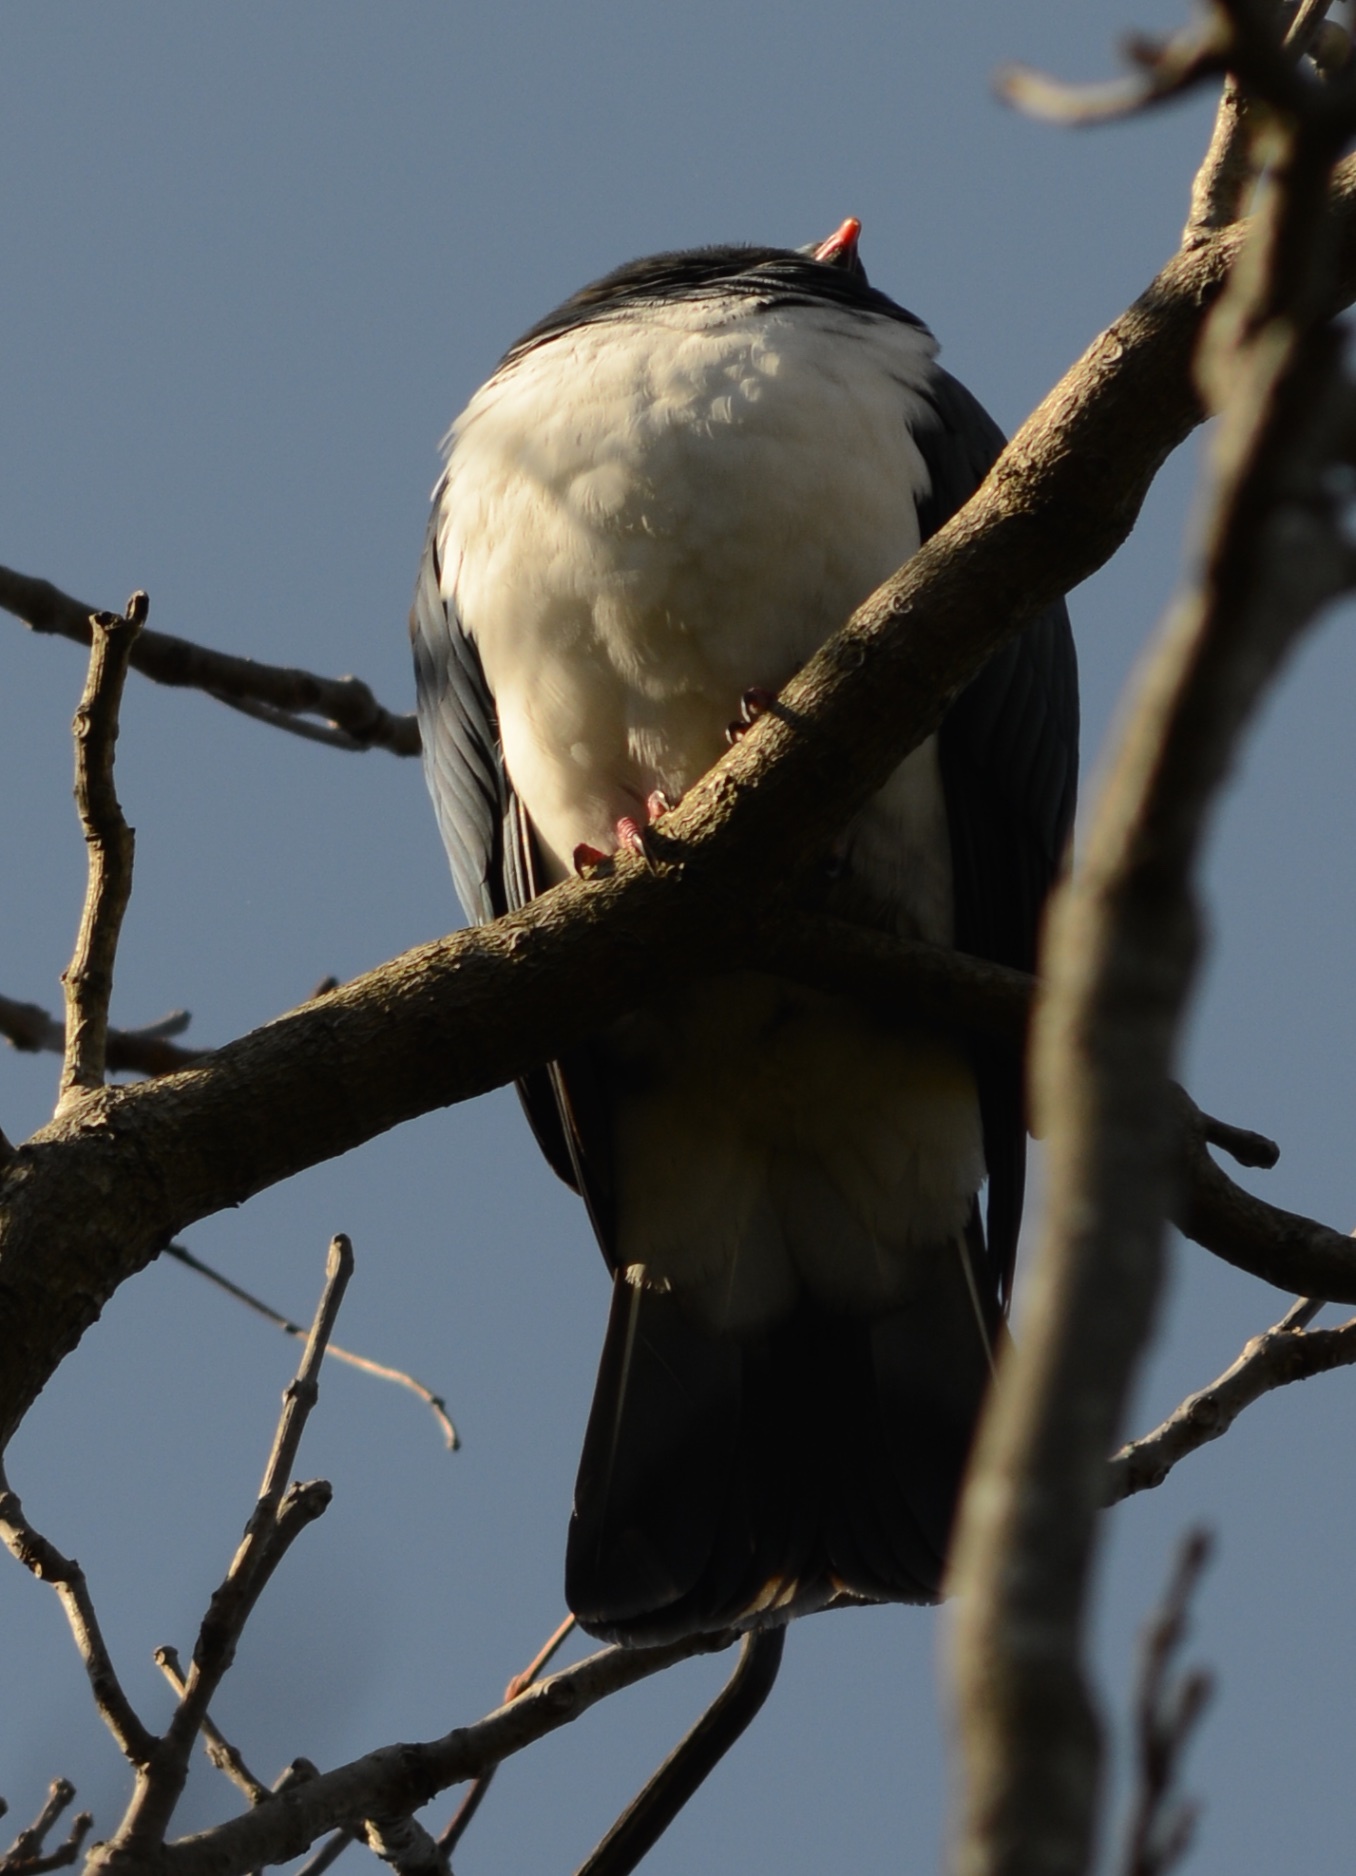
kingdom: Animalia
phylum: Chordata
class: Aves
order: Columbiformes
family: Columbidae
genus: Hemiphaga
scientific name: Hemiphaga novaeseelandiae
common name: New zealand pigeon
